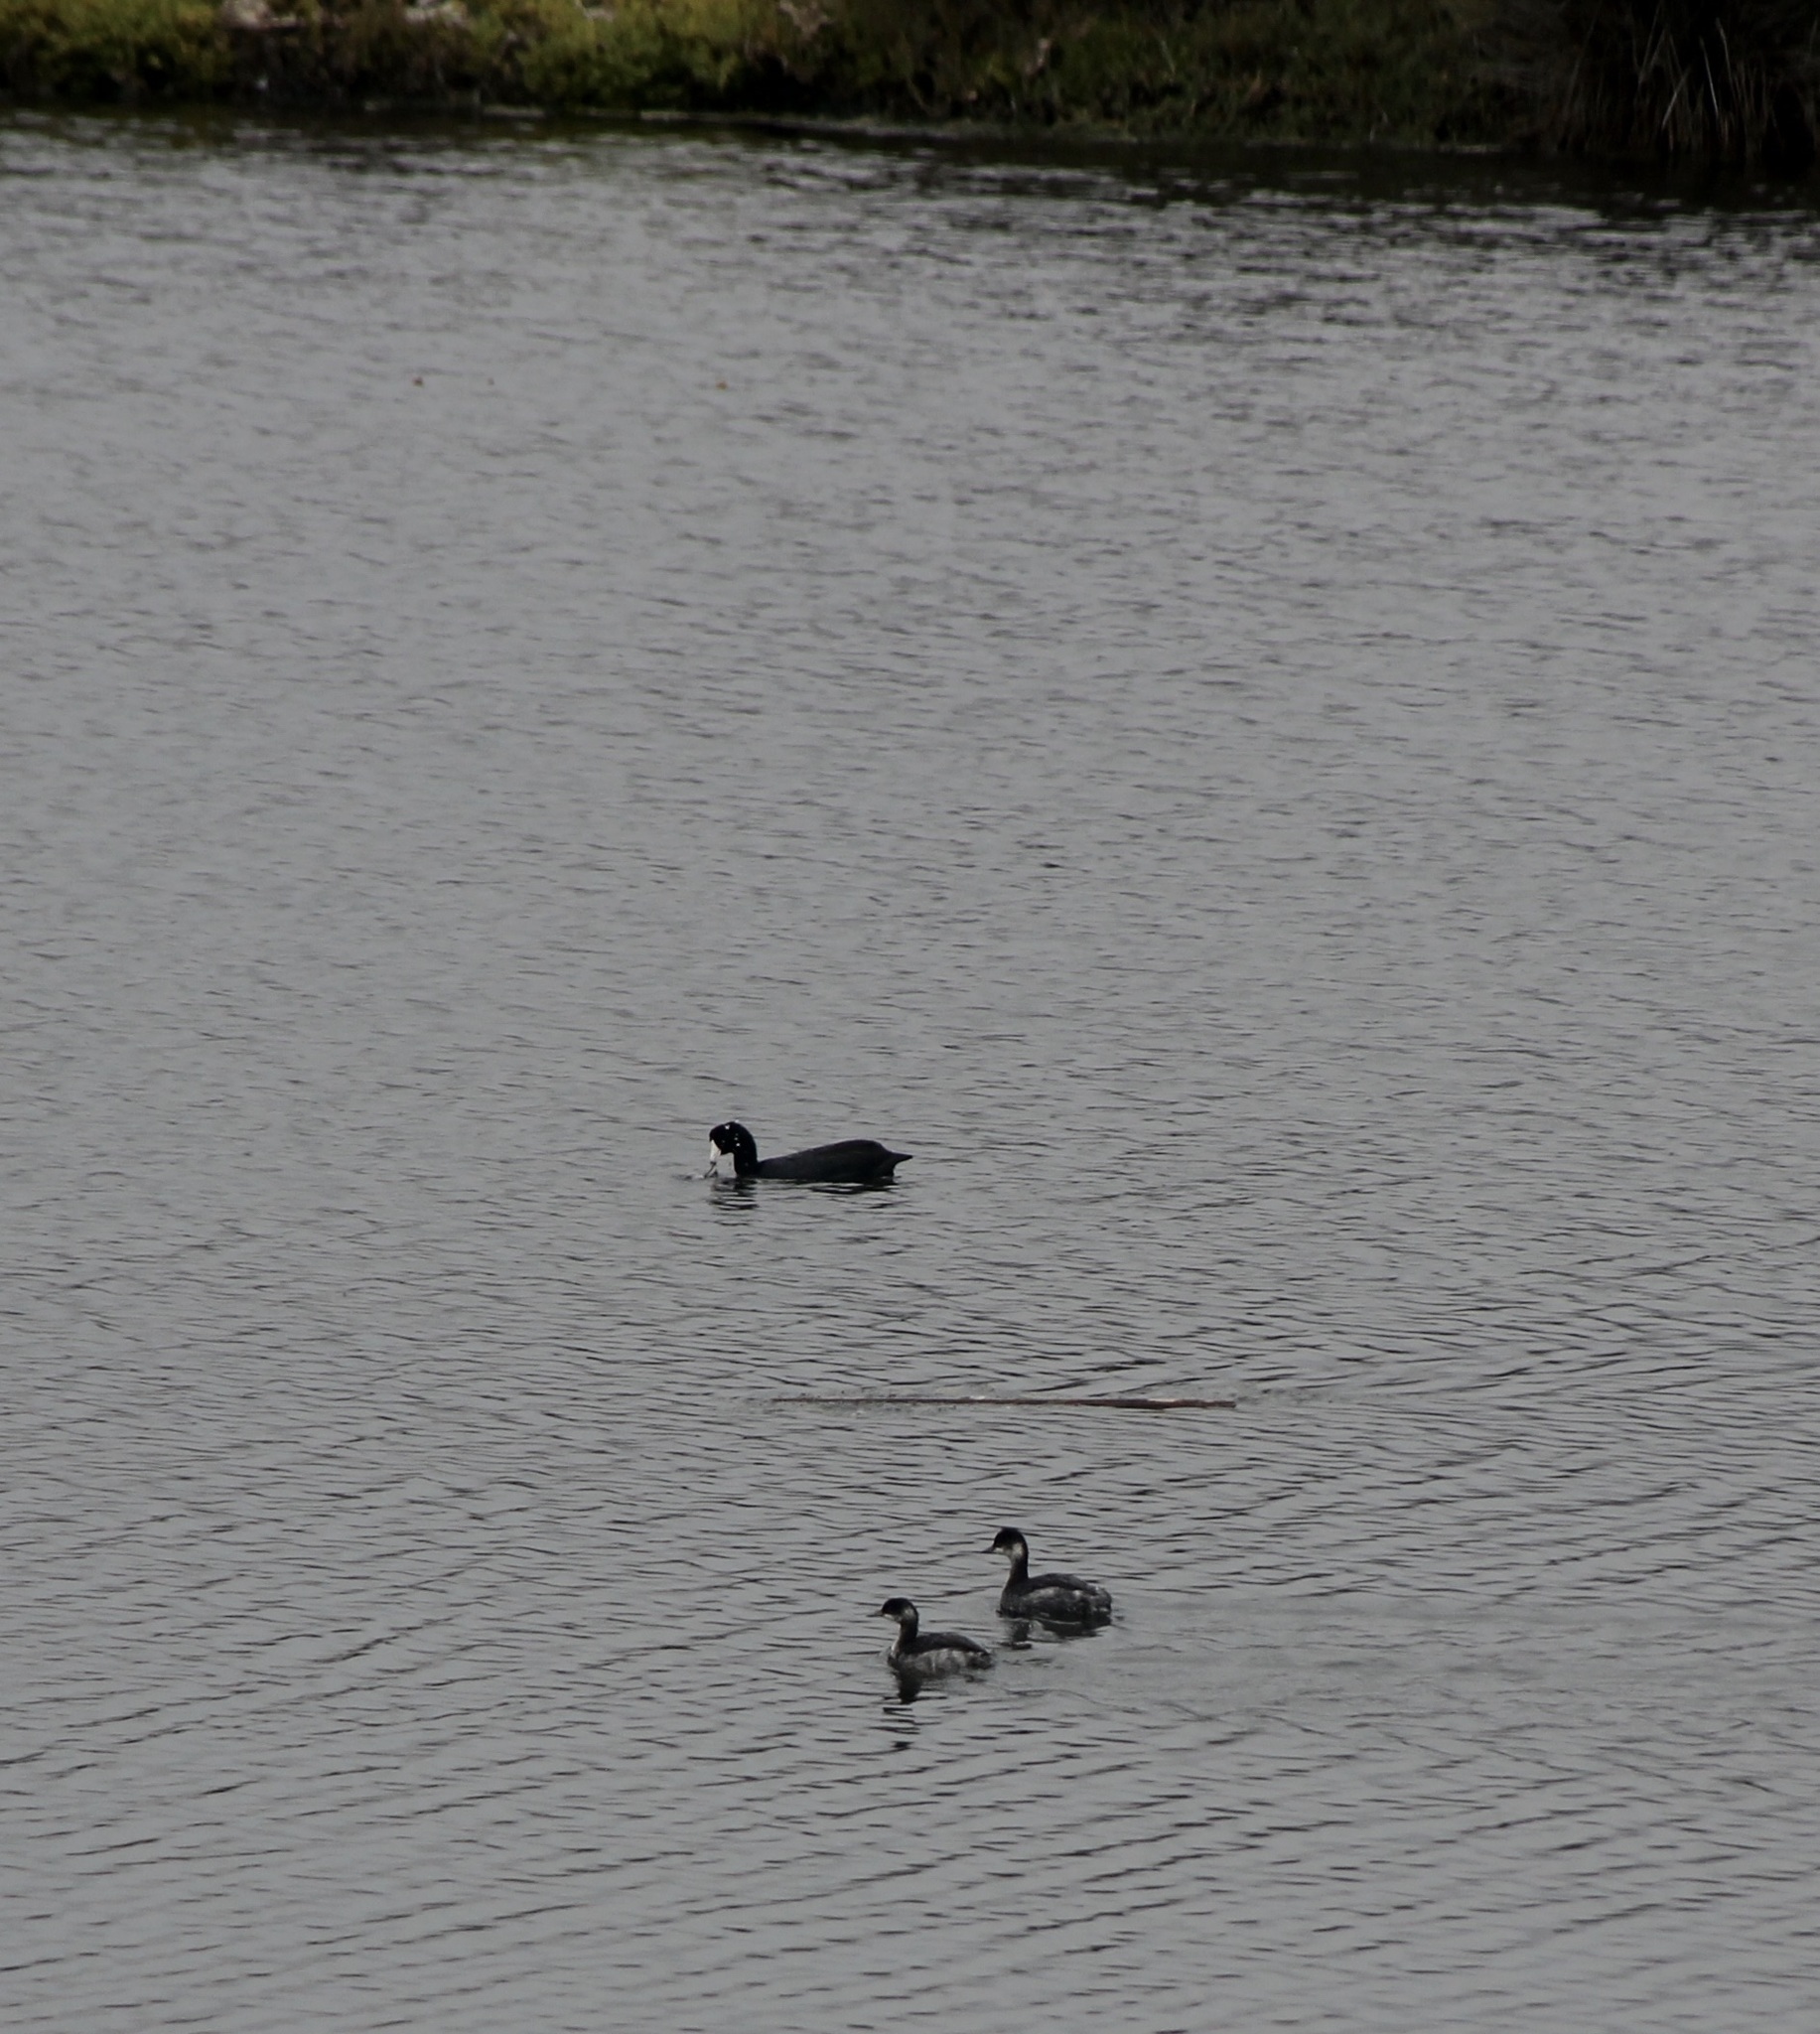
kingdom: Animalia
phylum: Chordata
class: Aves
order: Podicipediformes
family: Podicipedidae
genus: Podiceps
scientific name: Podiceps nigricollis
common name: Black-necked grebe
